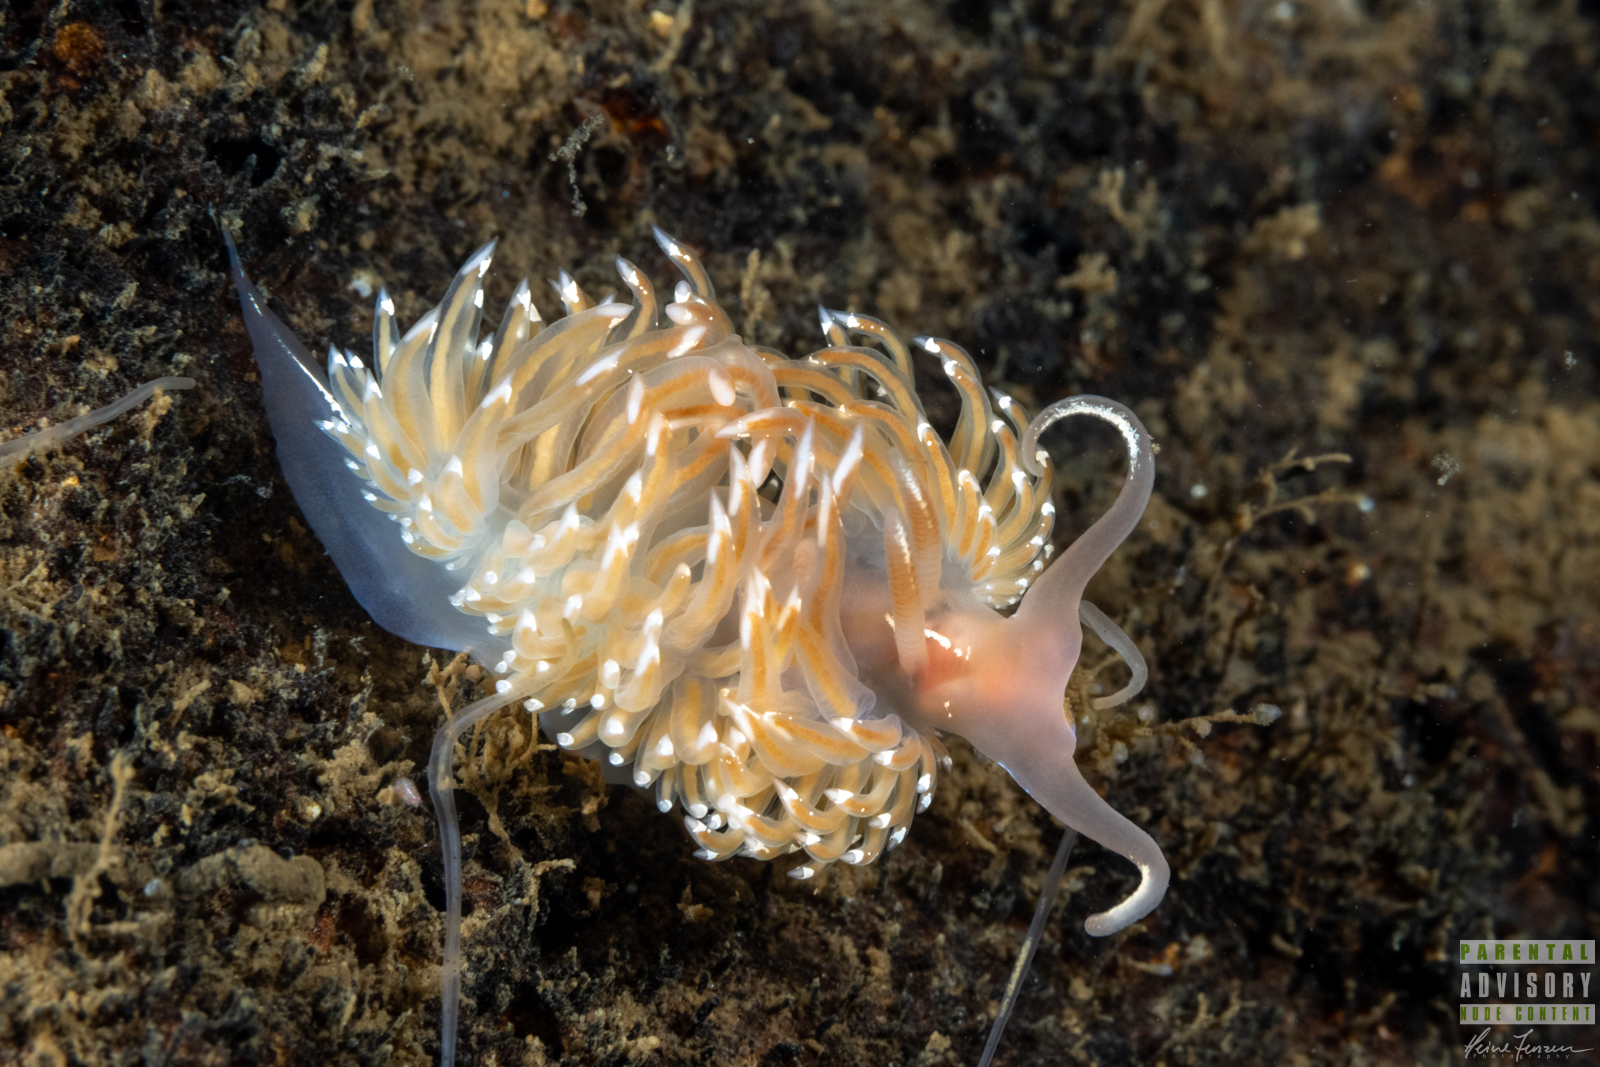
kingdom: Animalia
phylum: Mollusca
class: Gastropoda
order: Nudibranchia
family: Facelinidae
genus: Facelina
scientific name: Facelina bostoniensis
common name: Boston facelina
